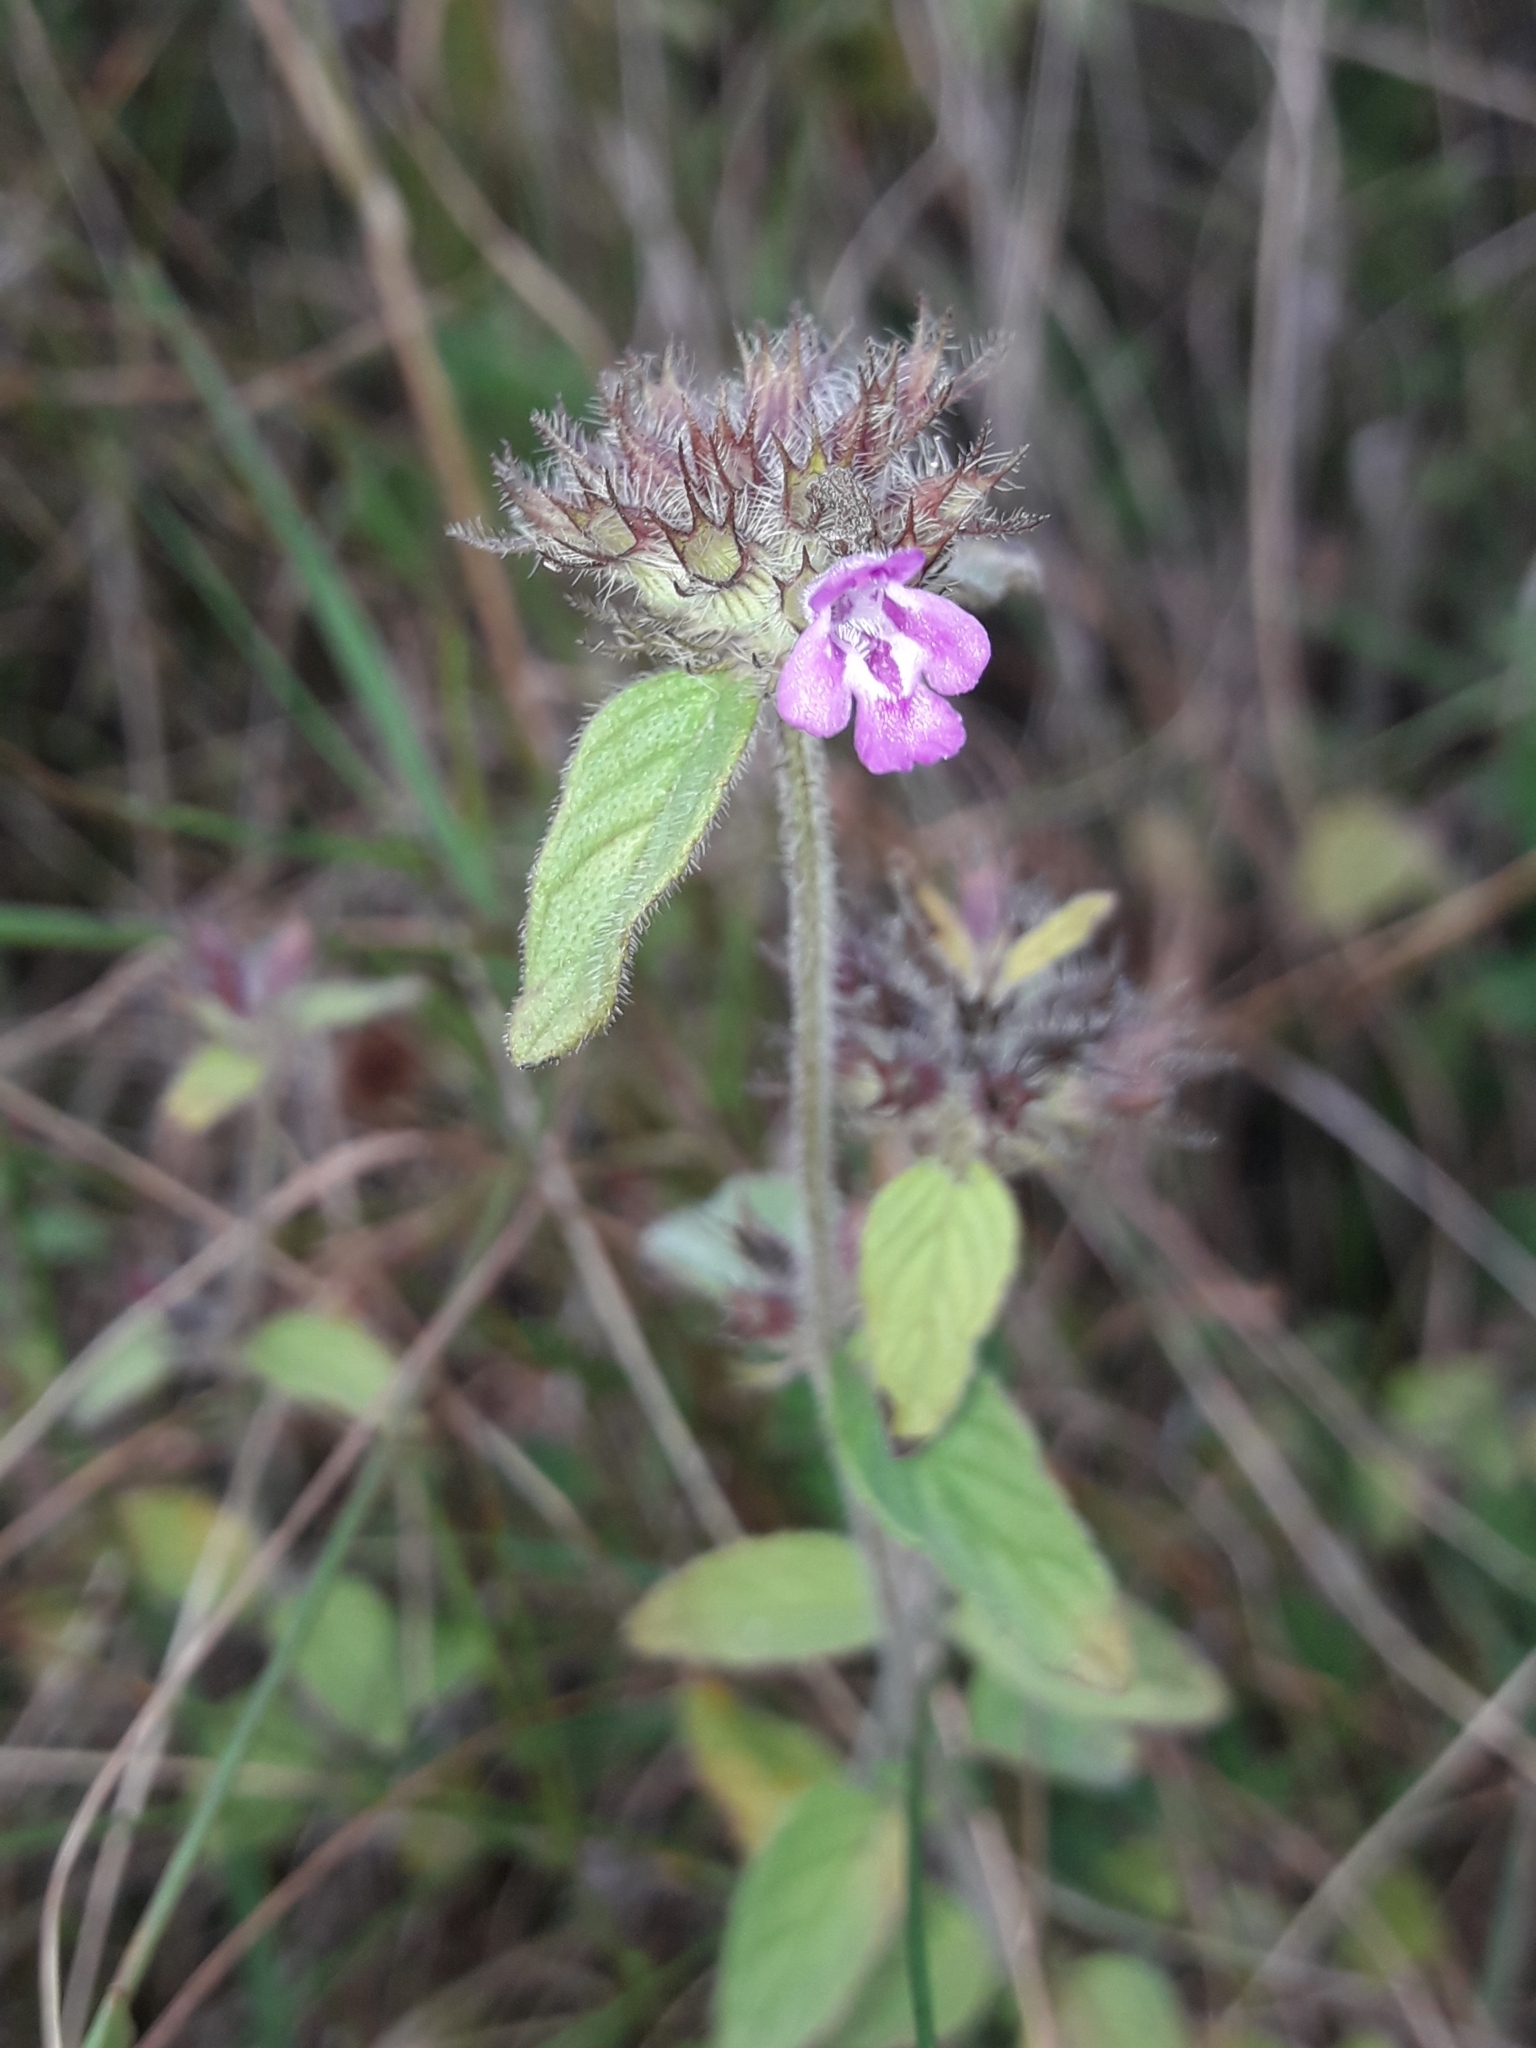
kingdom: Plantae
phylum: Tracheophyta
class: Magnoliopsida
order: Lamiales
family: Lamiaceae
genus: Clinopodium
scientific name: Clinopodium vulgare
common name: Wild basil
